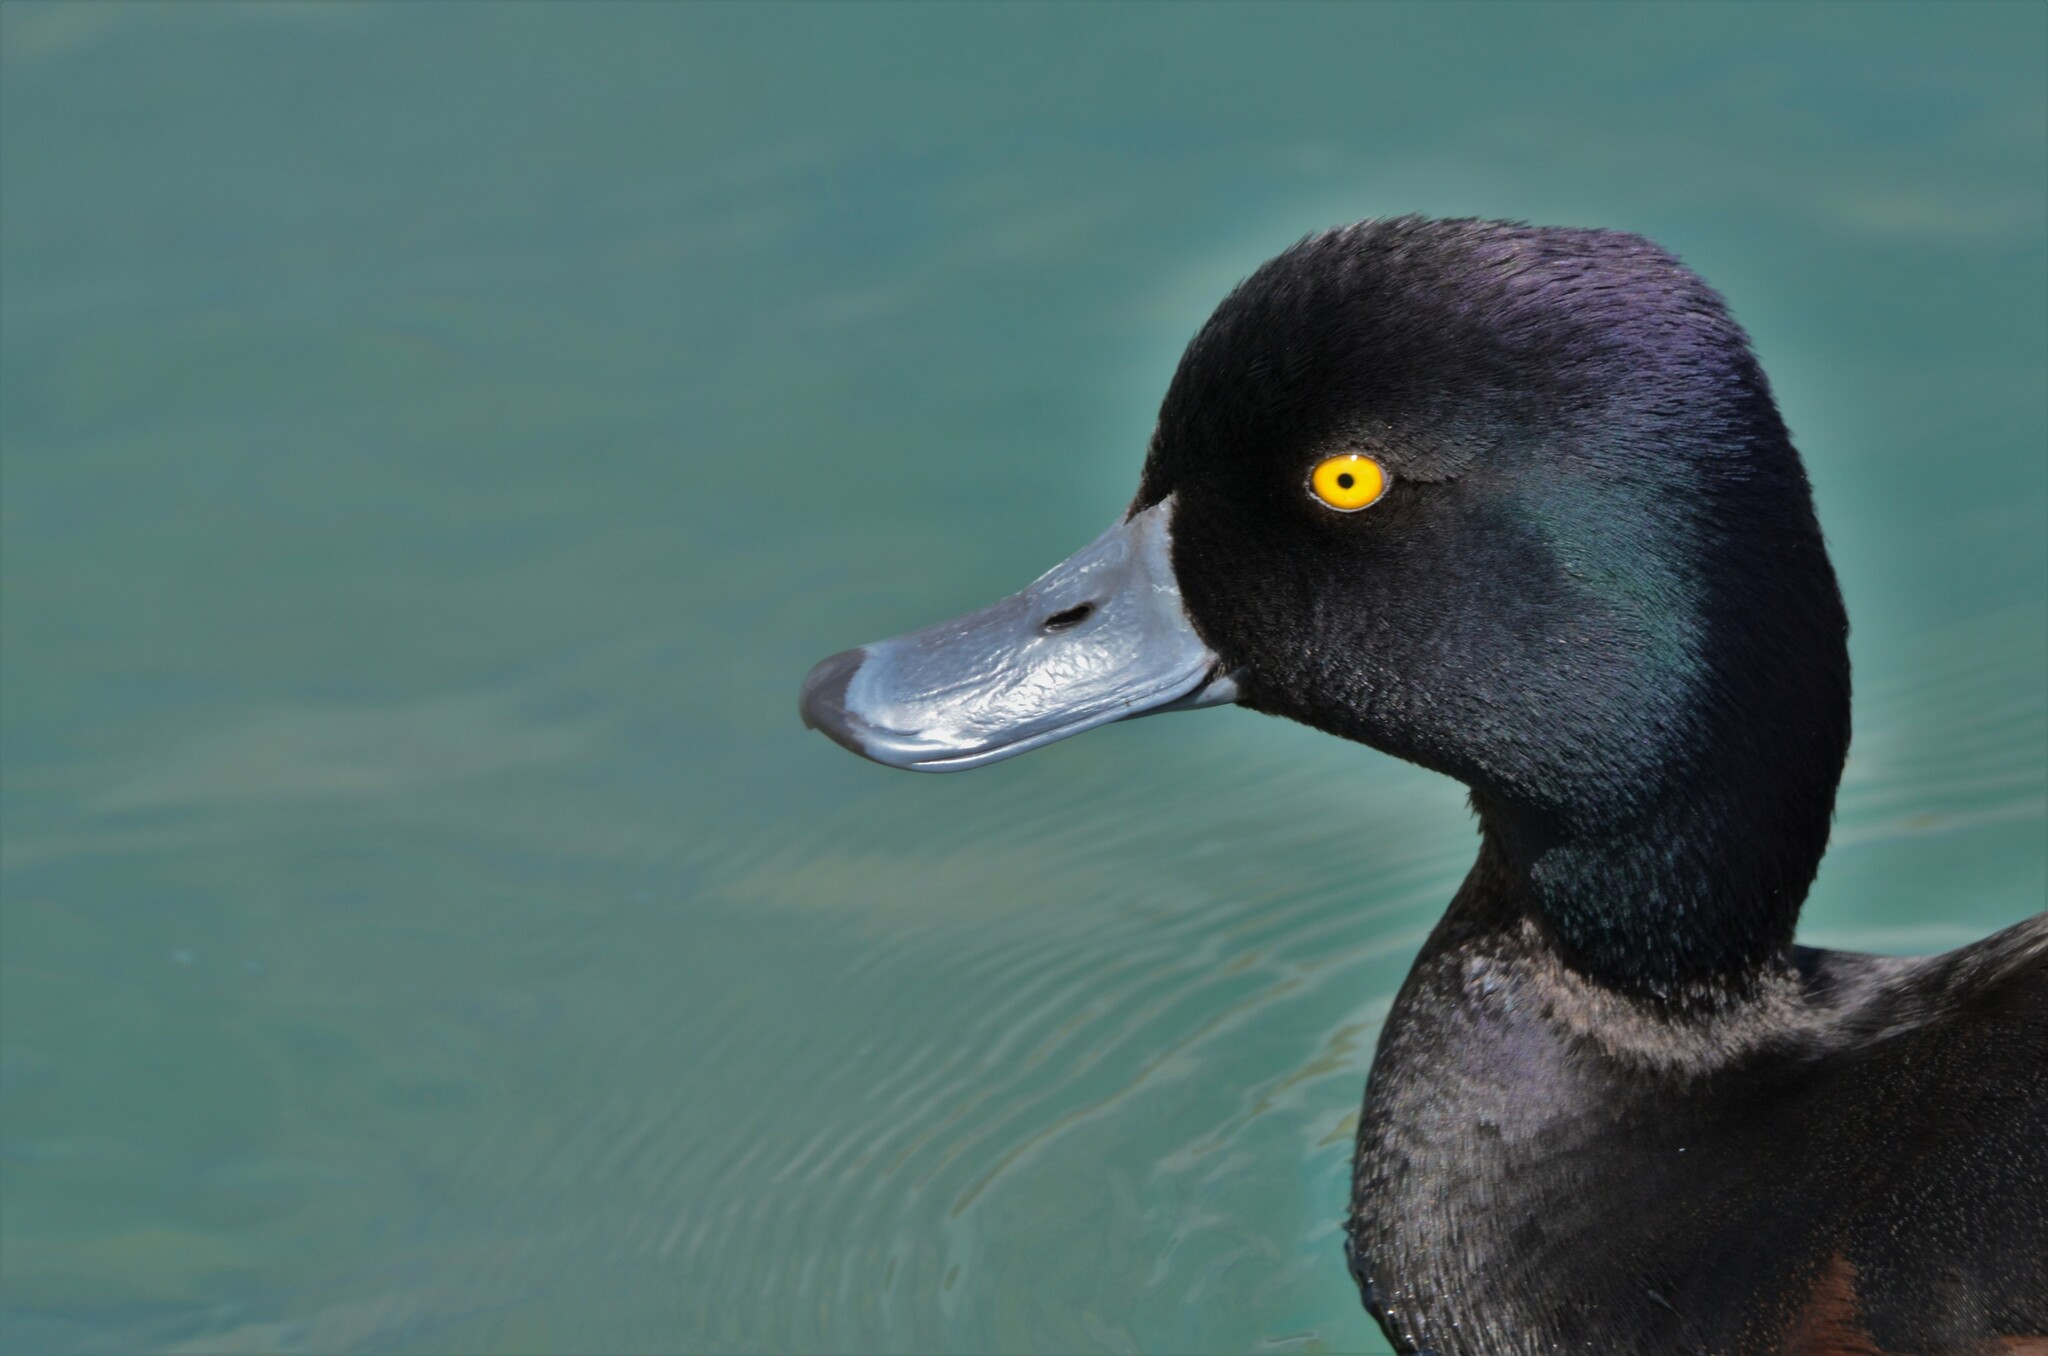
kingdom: Animalia
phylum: Chordata
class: Aves
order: Anseriformes
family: Anatidae
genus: Aythya
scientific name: Aythya novaeseelandiae
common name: New zealand scaup
